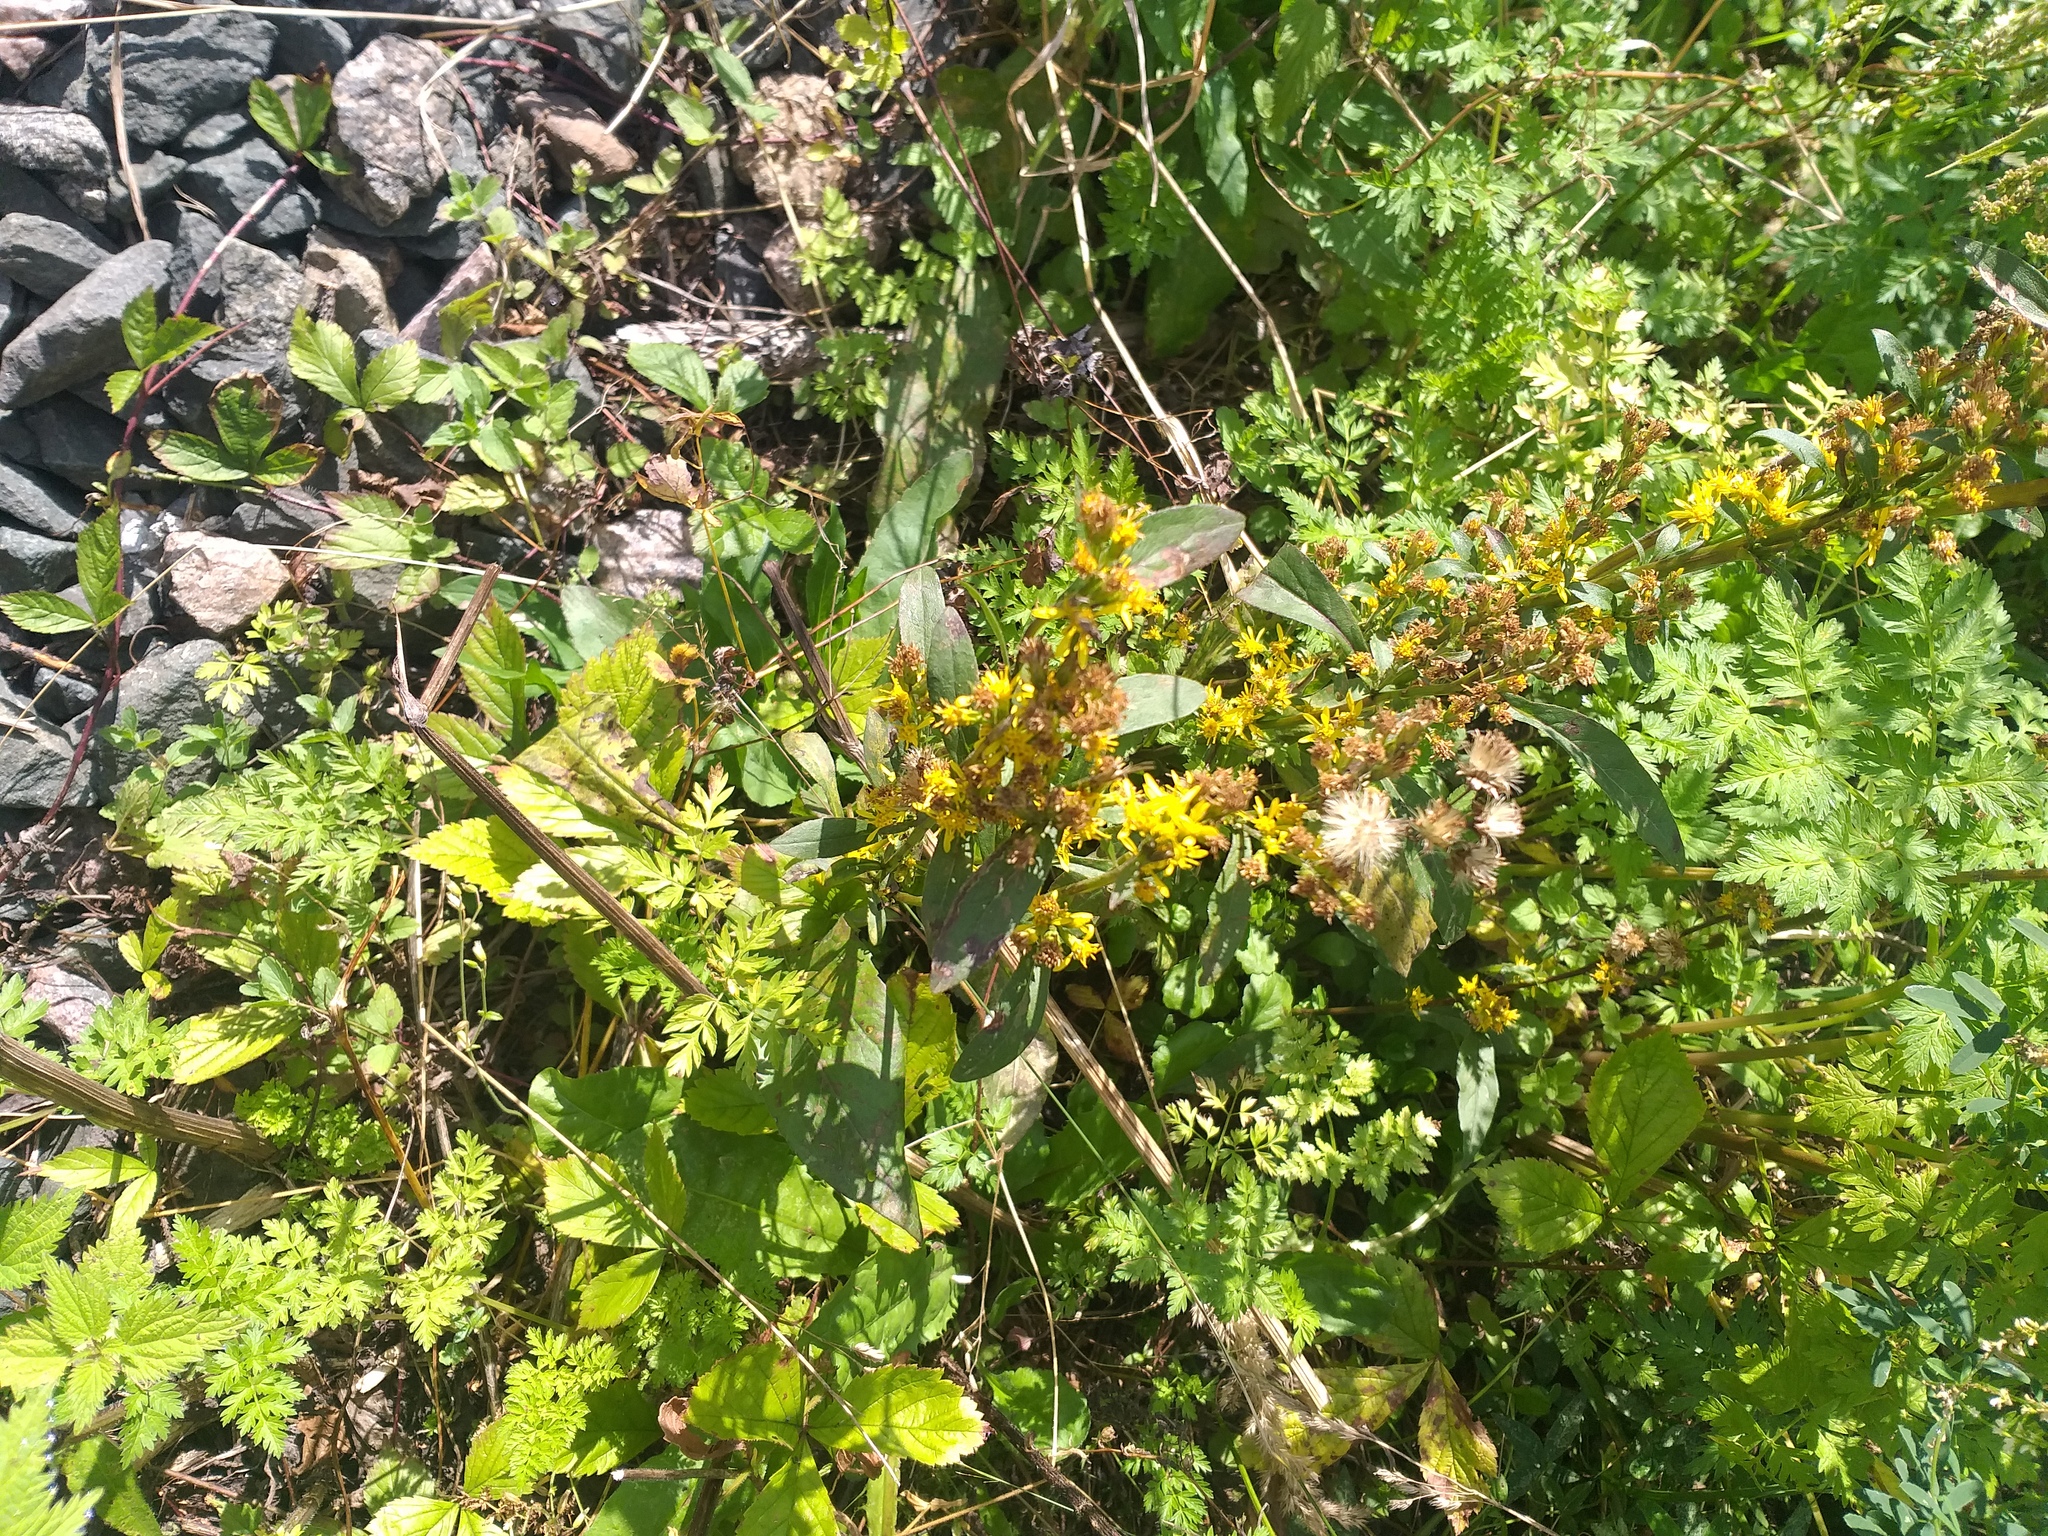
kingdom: Plantae
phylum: Tracheophyta
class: Magnoliopsida
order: Asterales
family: Asteraceae
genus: Solidago
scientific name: Solidago virgaurea
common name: Goldenrod
